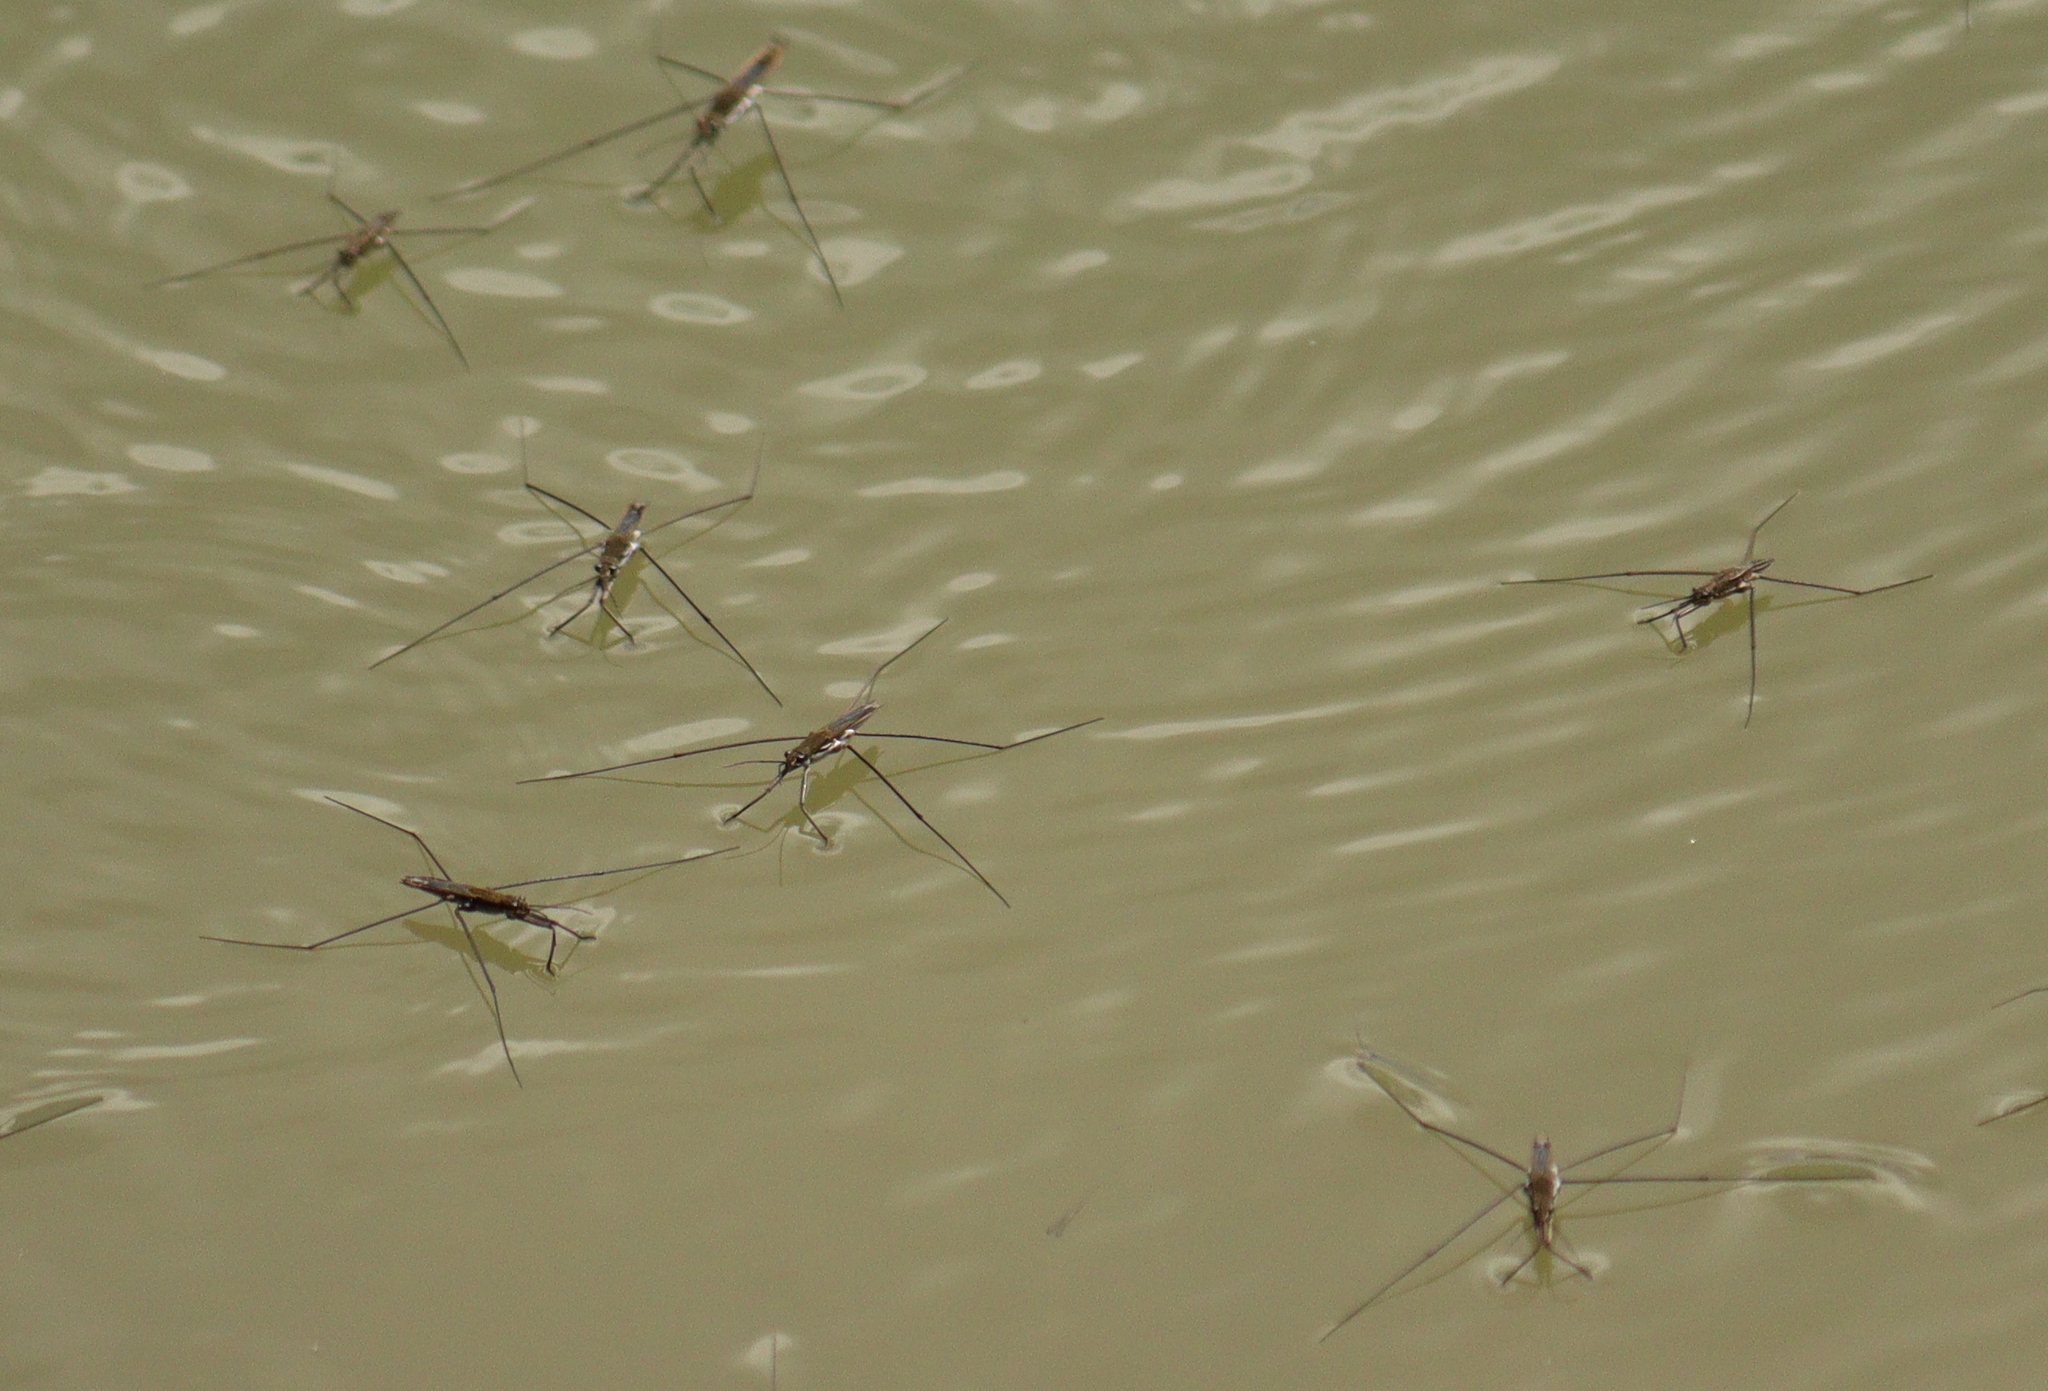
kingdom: Animalia
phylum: Arthropoda
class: Insecta
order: Hemiptera
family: Gerridae
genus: Aquarius
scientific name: Aquarius paludum
